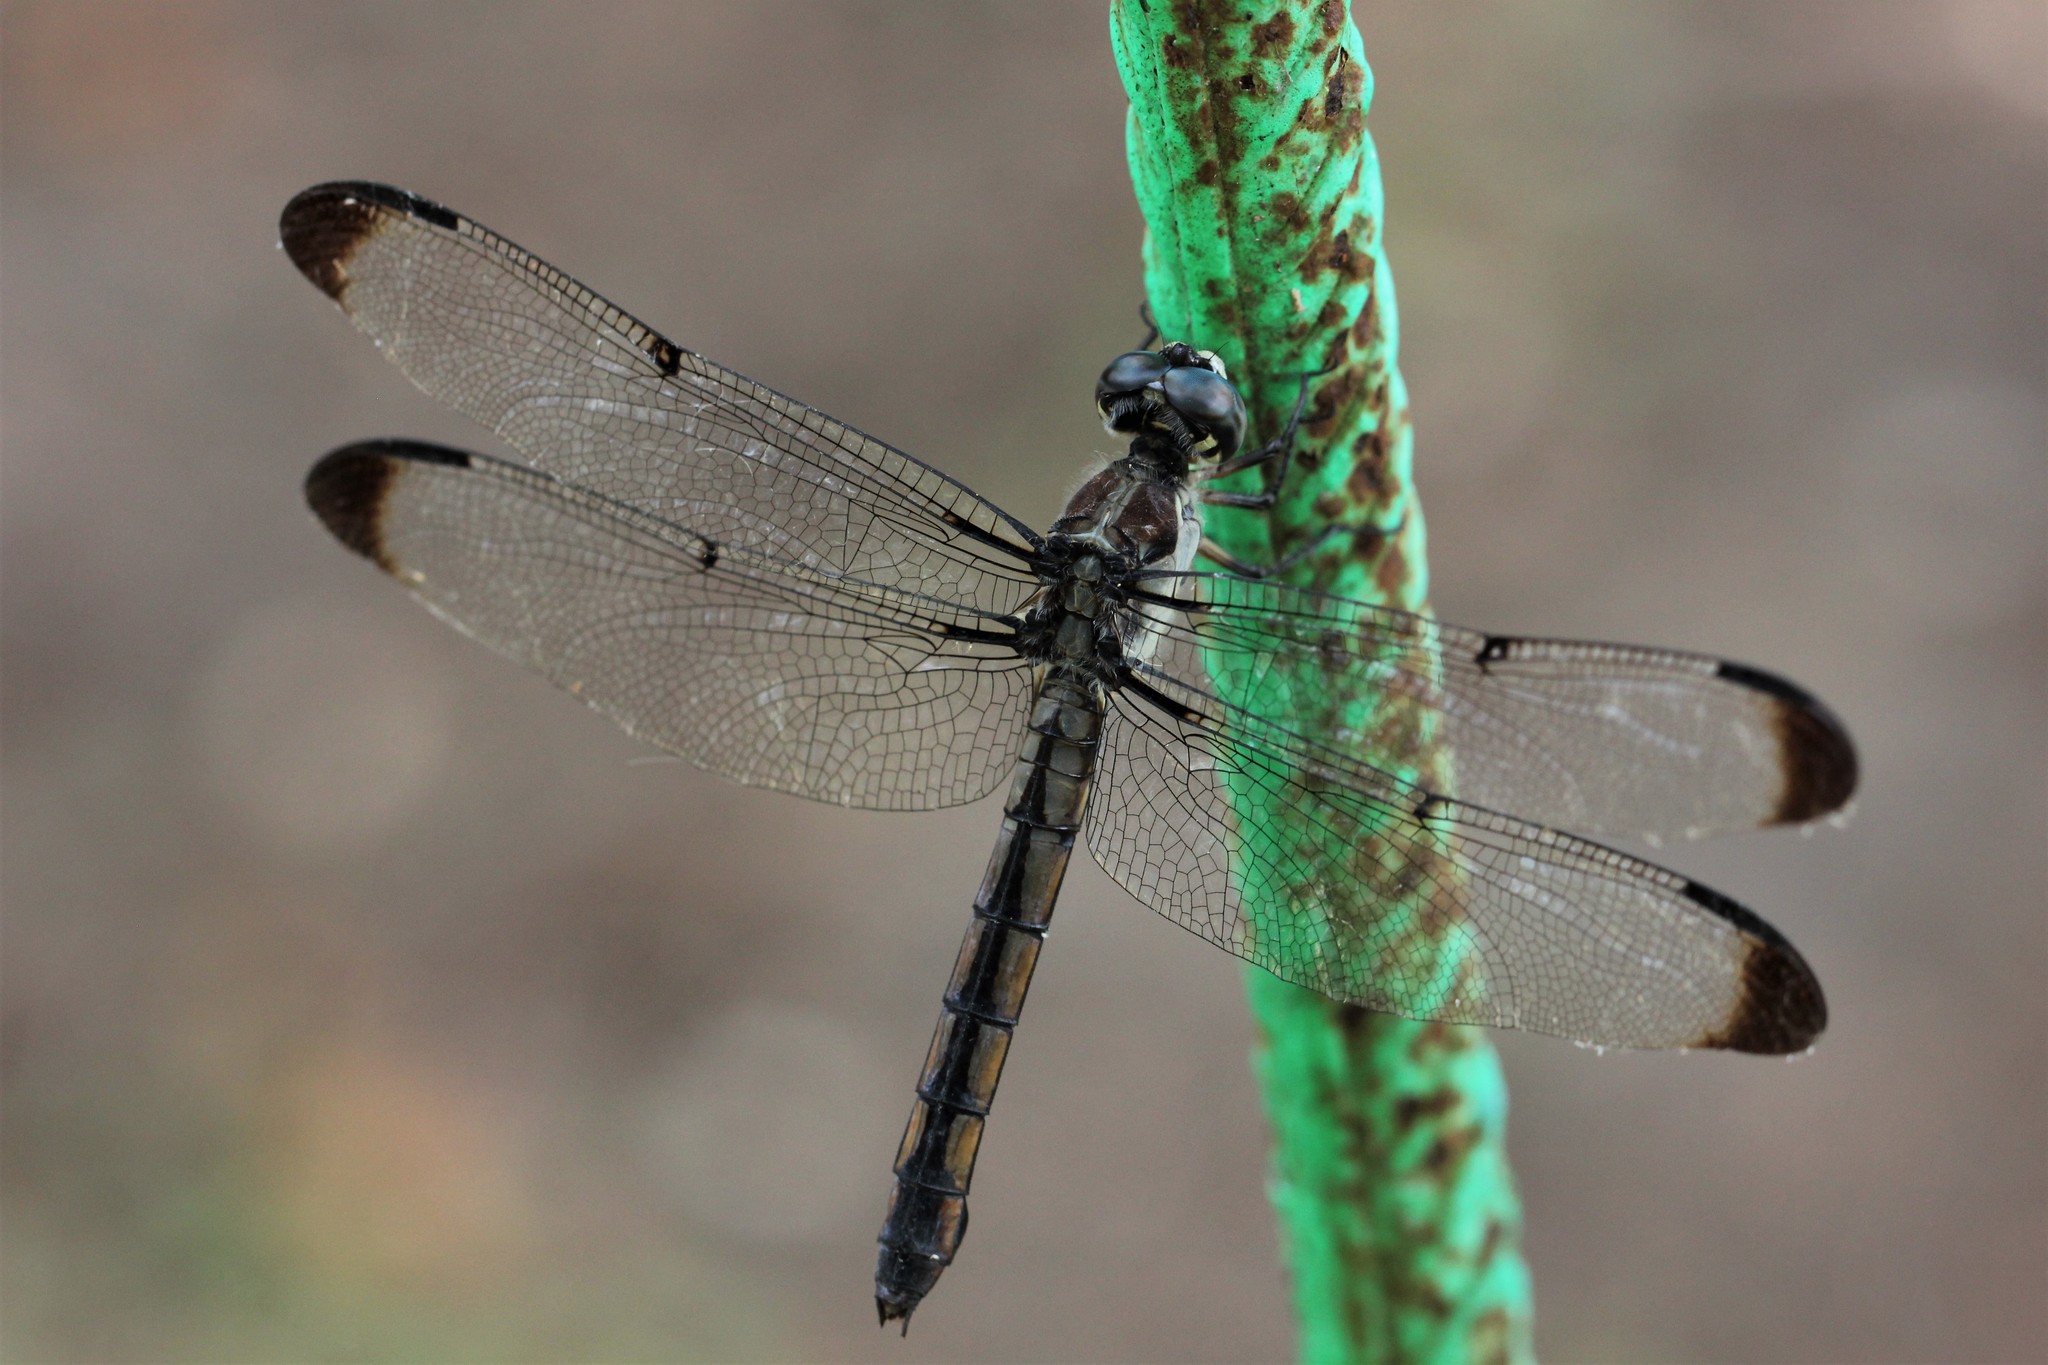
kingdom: Animalia
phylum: Arthropoda
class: Insecta
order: Odonata
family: Libellulidae
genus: Libellula
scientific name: Libellula vibrans
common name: Great blue skimmer
